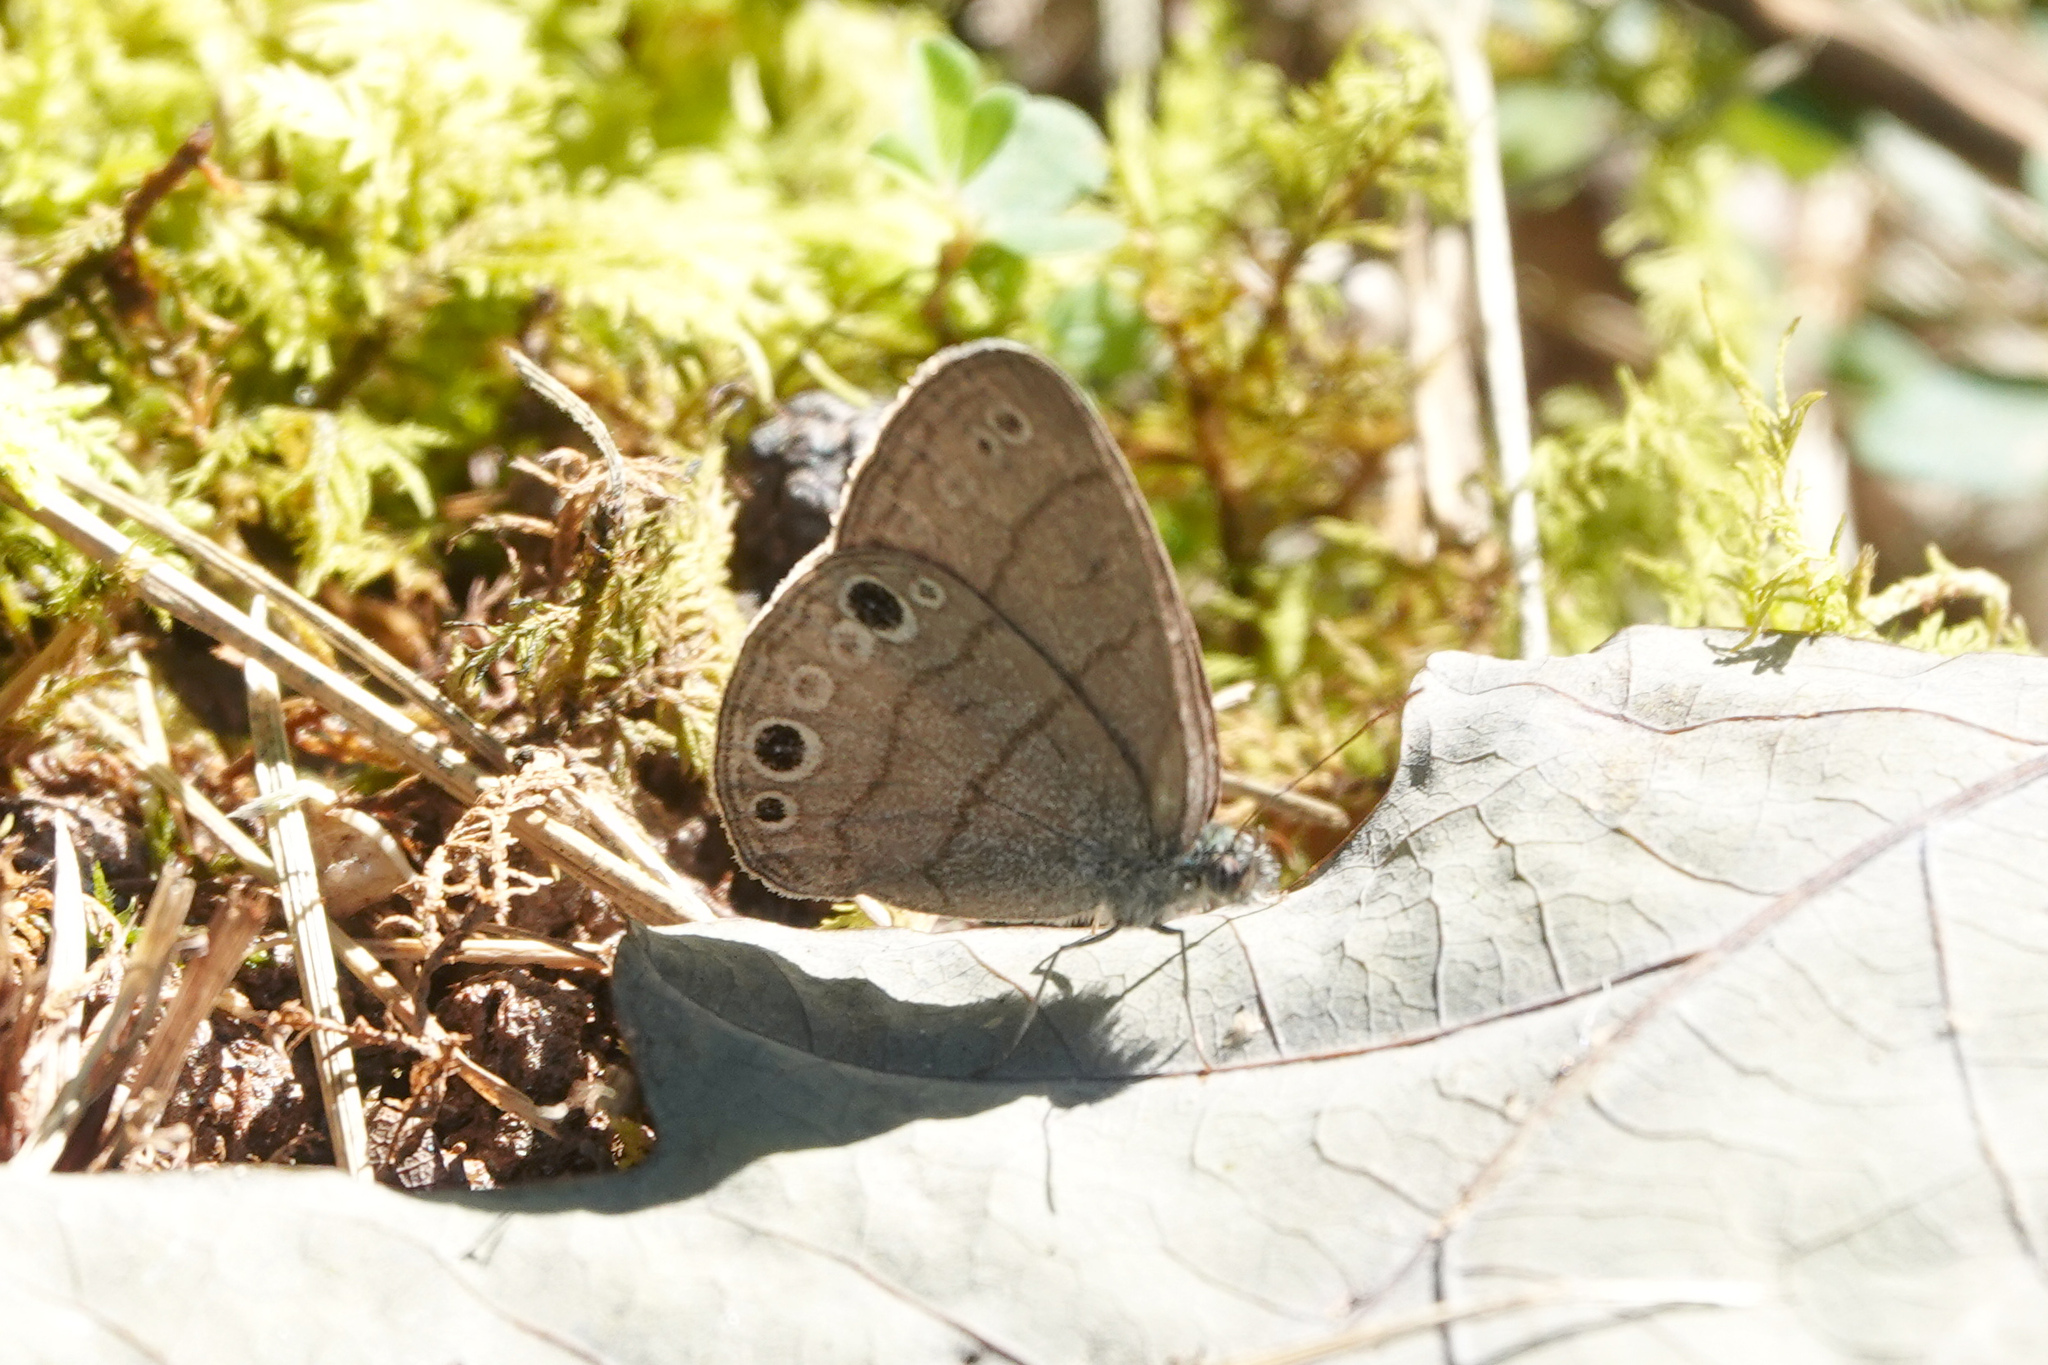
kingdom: Animalia
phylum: Arthropoda
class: Insecta
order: Lepidoptera
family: Nymphalidae
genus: Hermeuptychia
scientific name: Hermeuptychia hermes
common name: Hermes satyr
